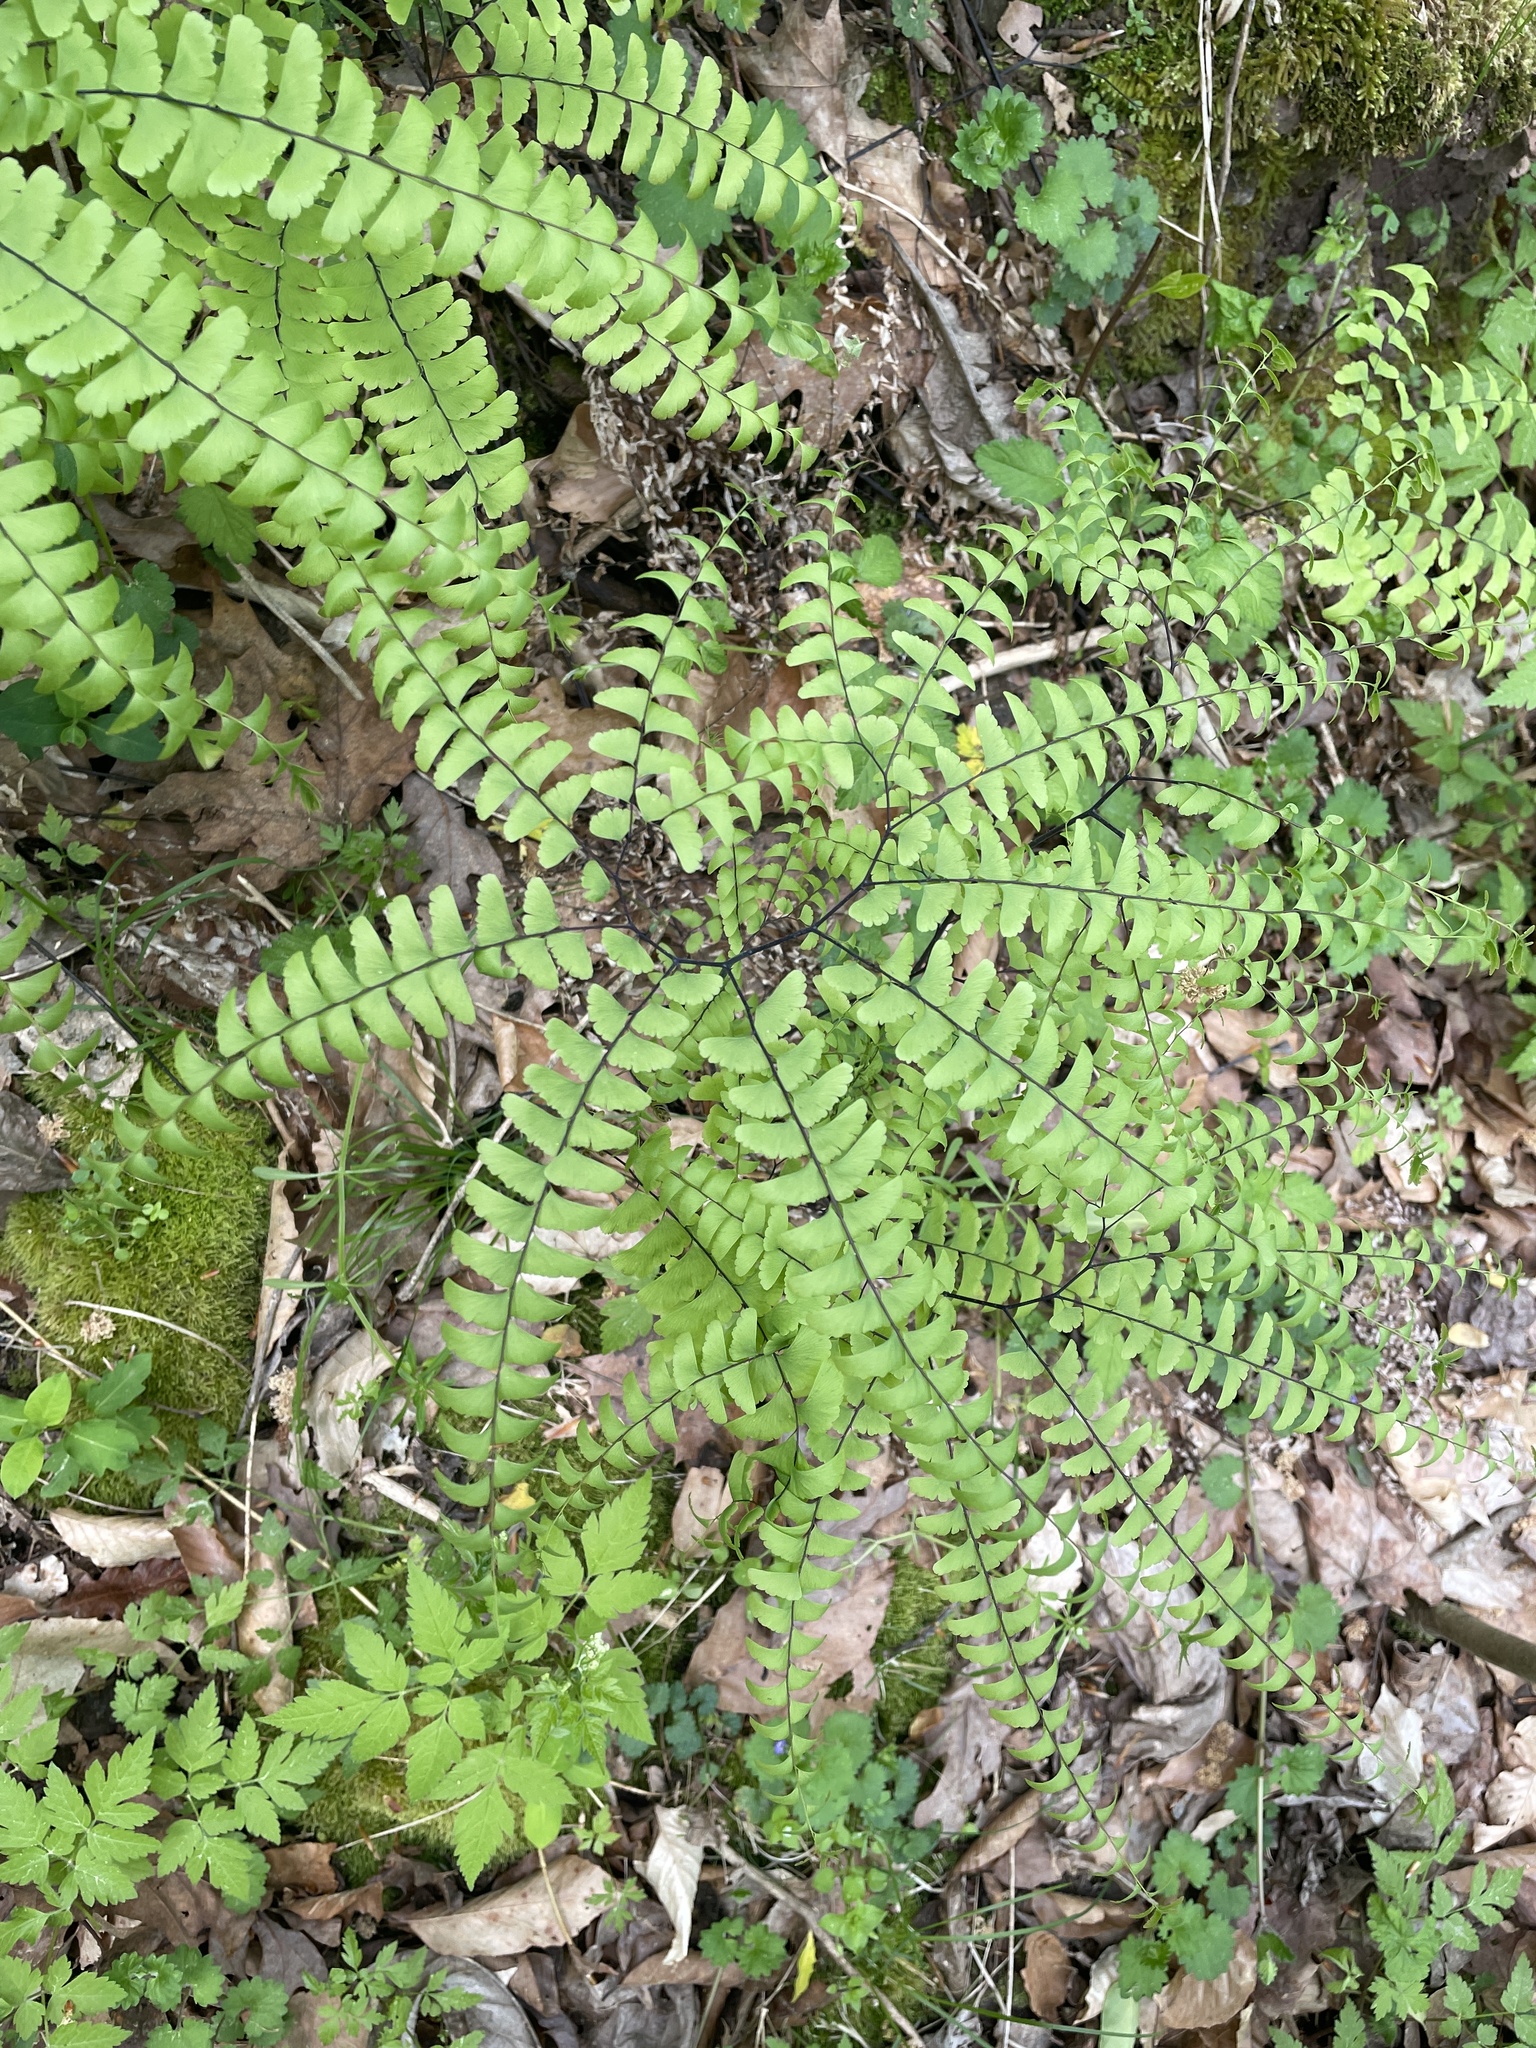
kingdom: Plantae
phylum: Tracheophyta
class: Polypodiopsida
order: Polypodiales
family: Pteridaceae
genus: Adiantum
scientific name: Adiantum pedatum
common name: Five-finger fern
